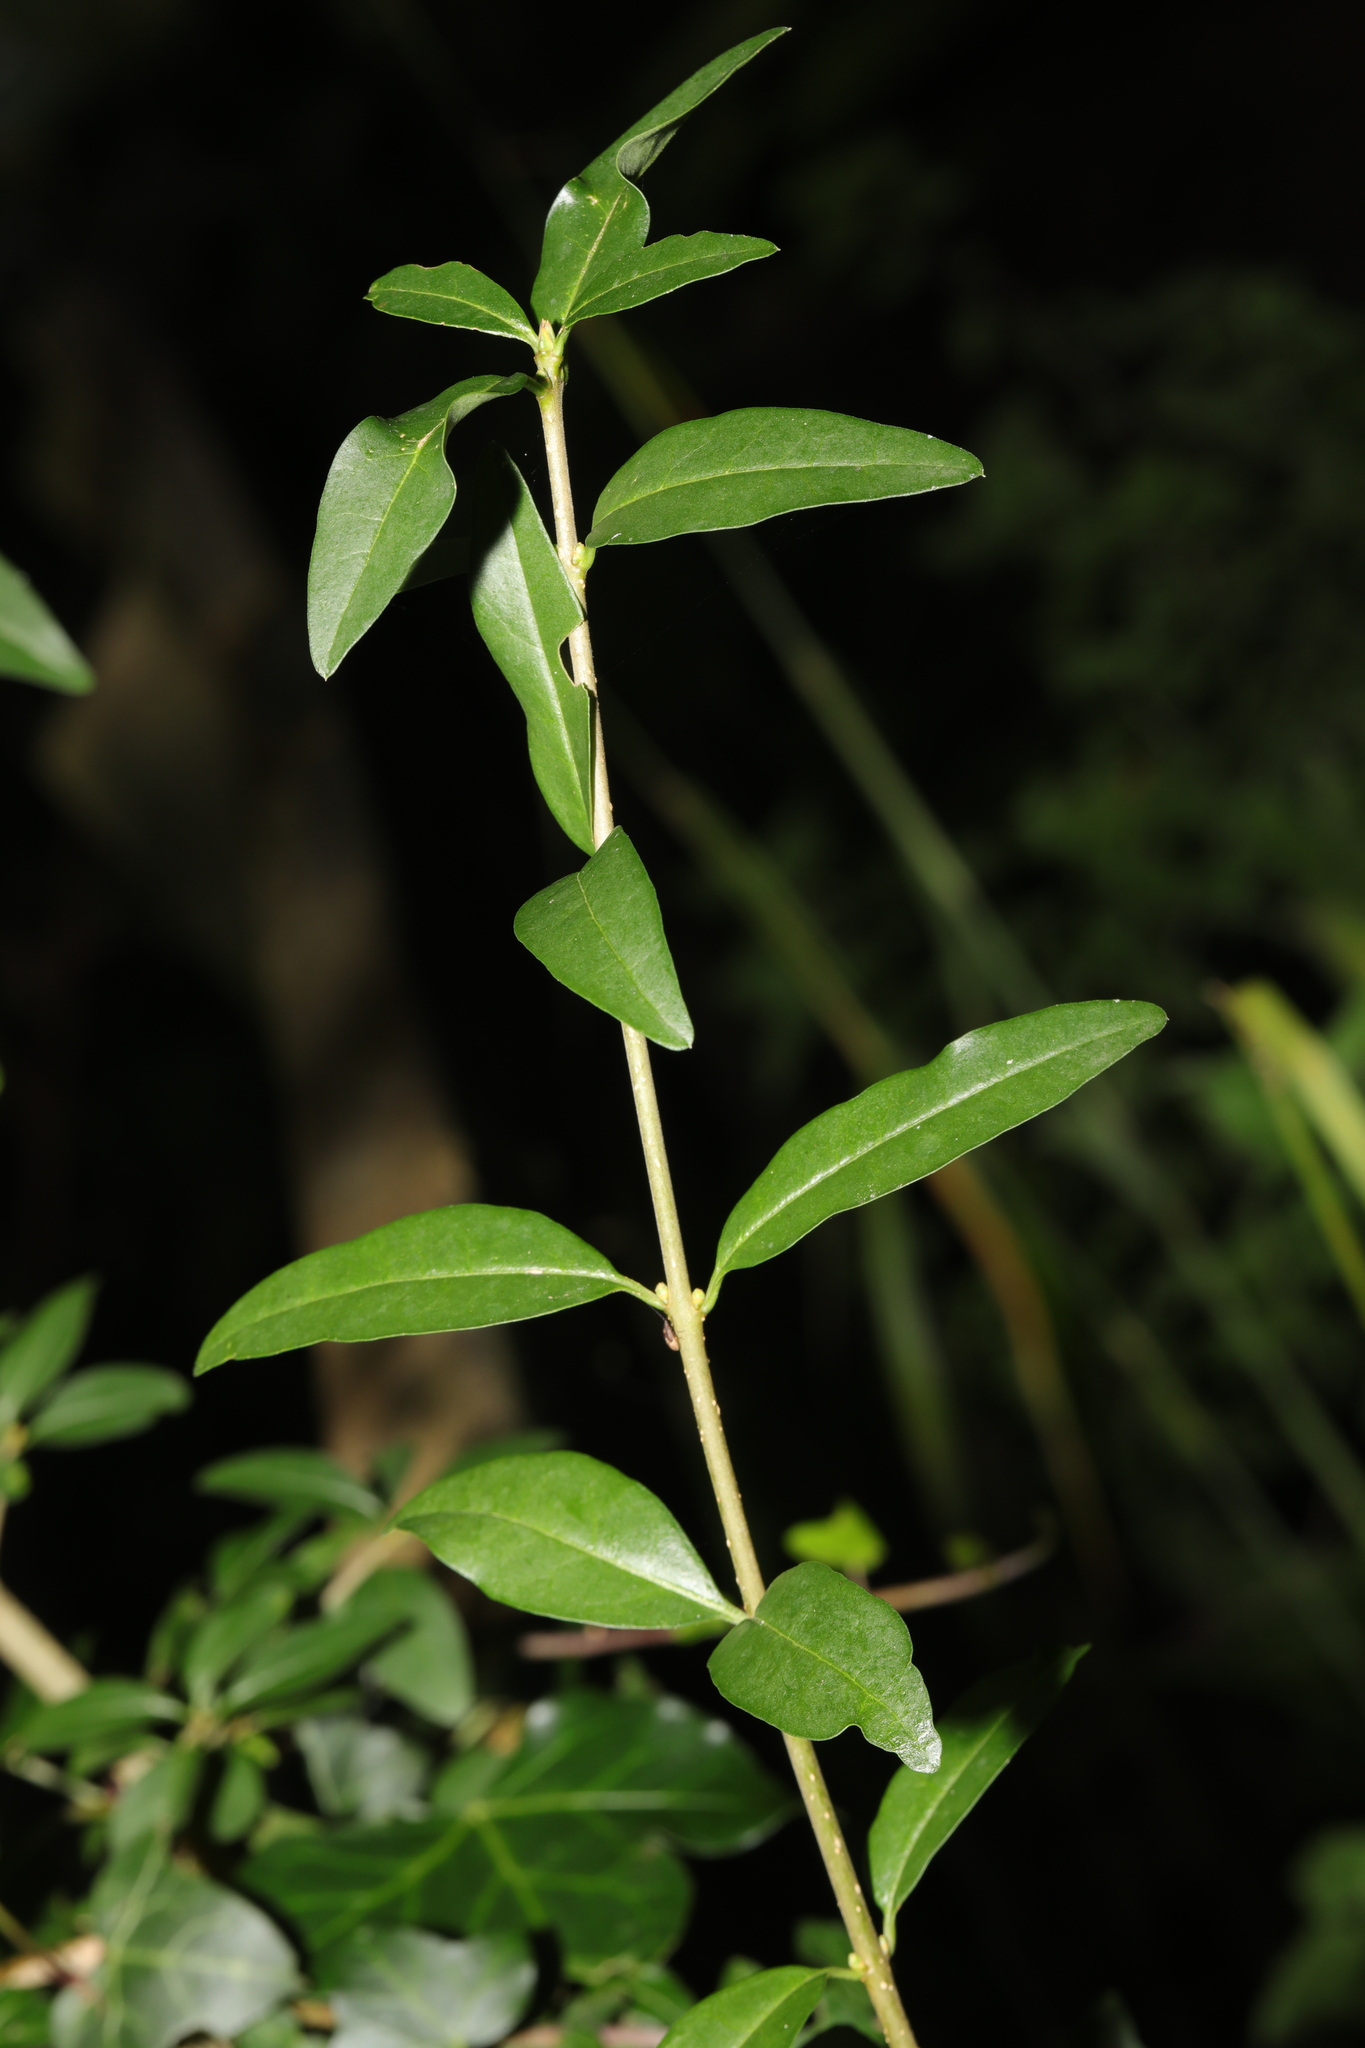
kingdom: Plantae
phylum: Tracheophyta
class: Magnoliopsida
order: Lamiales
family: Oleaceae
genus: Ligustrum
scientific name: Ligustrum vulgare
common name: Wild privet
